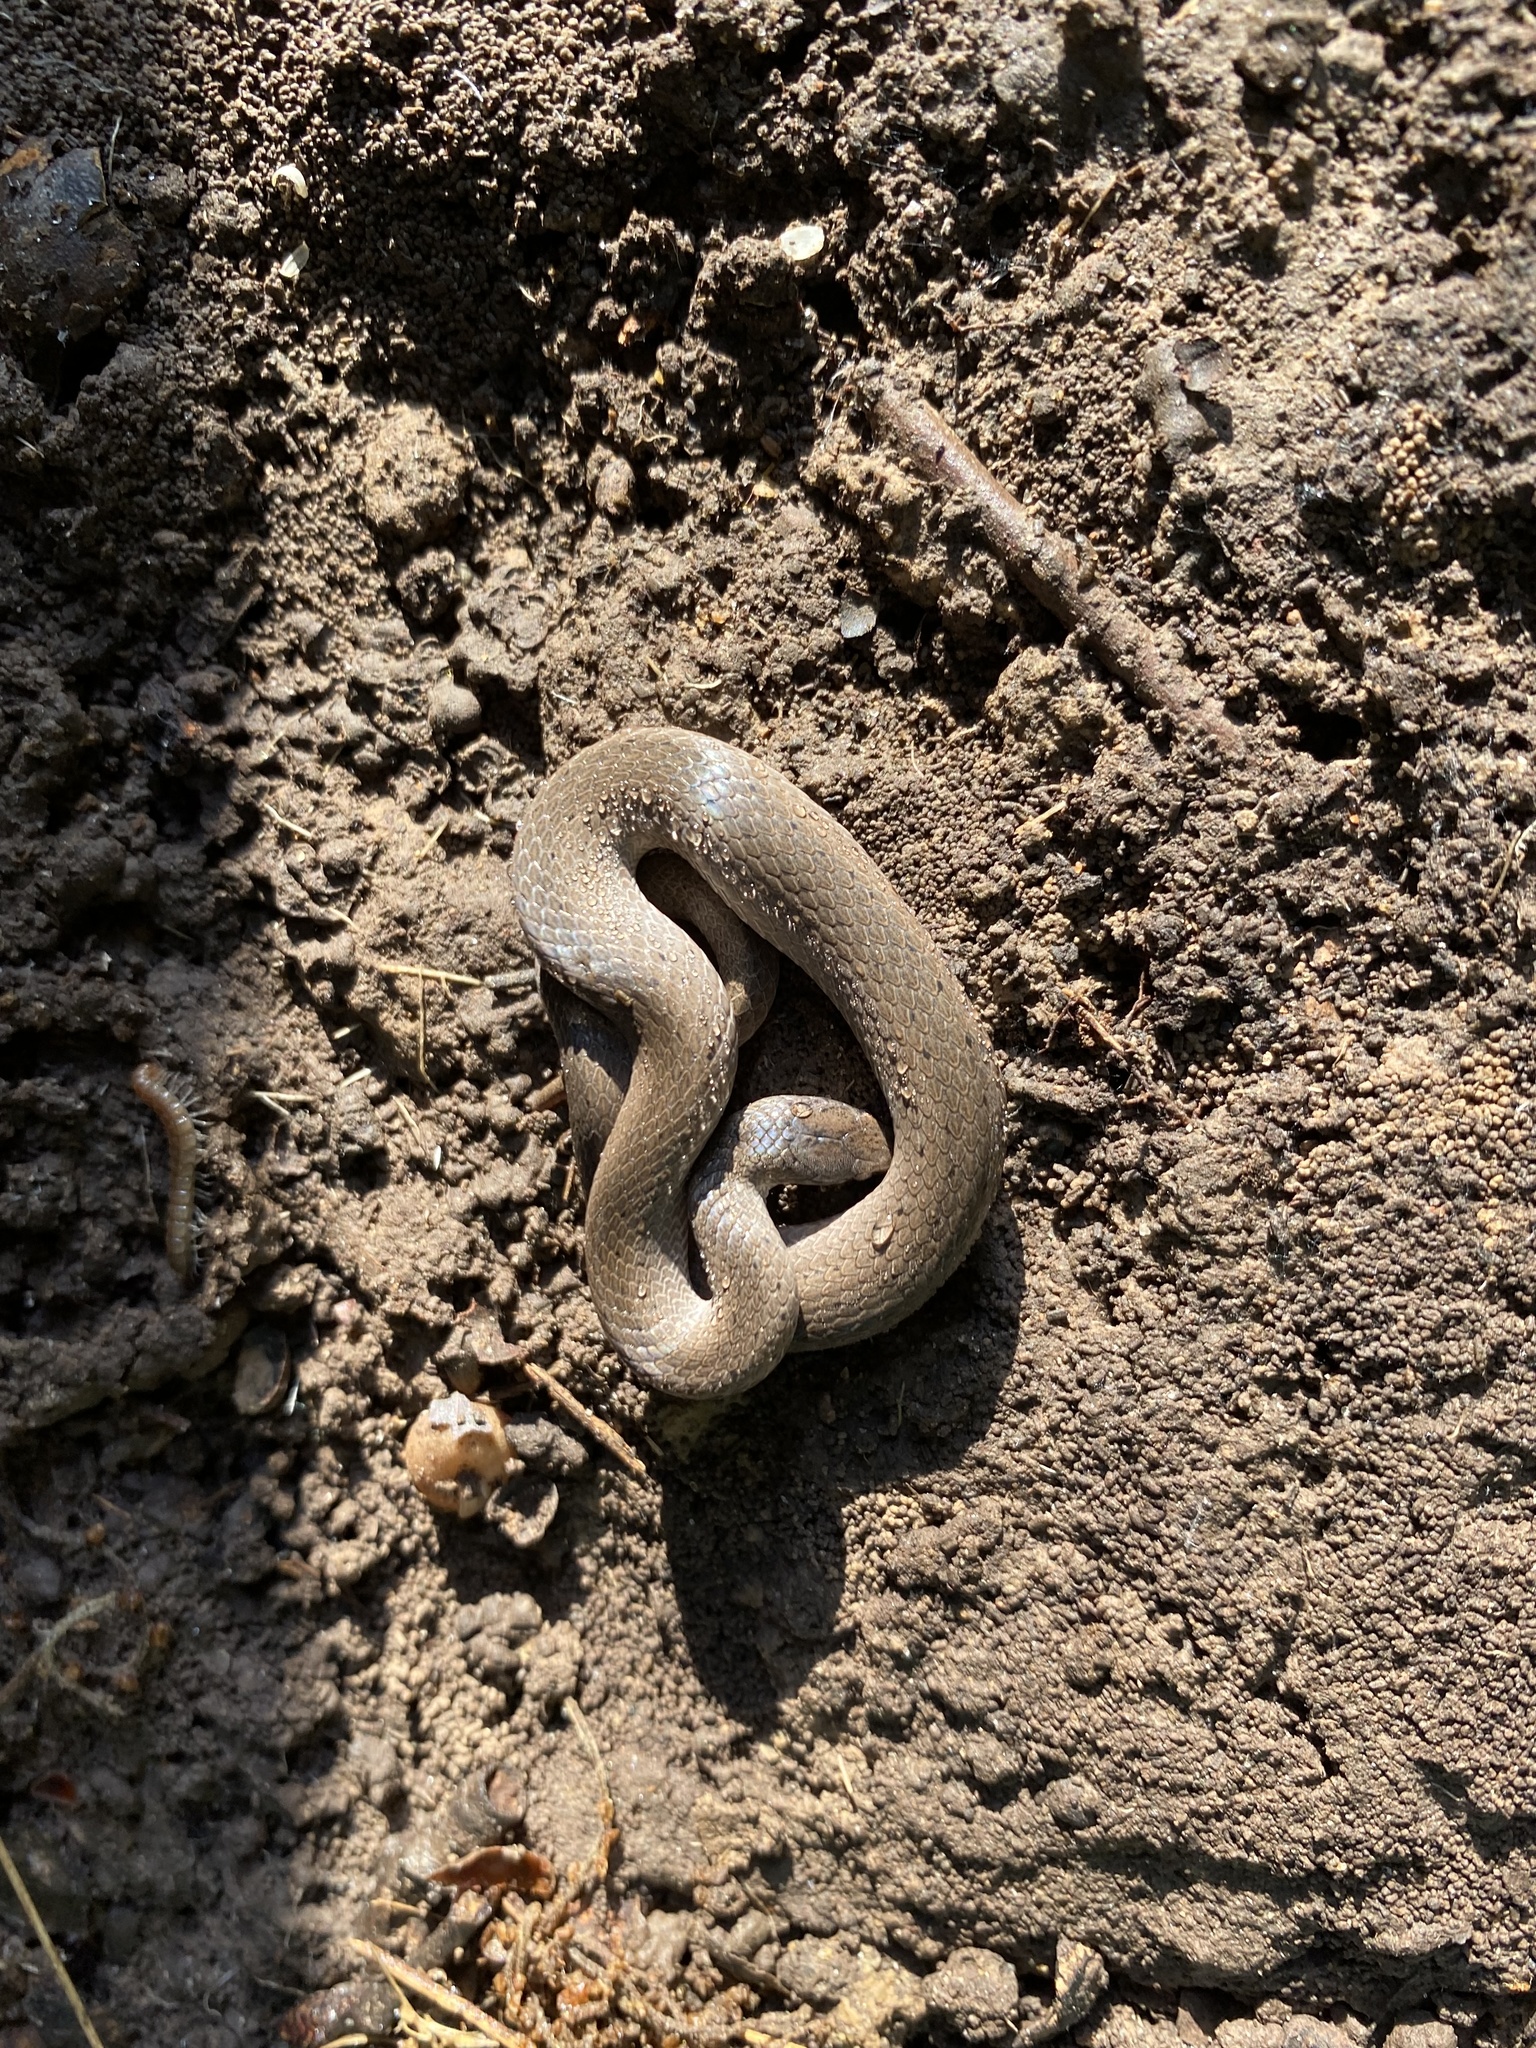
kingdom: Animalia
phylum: Chordata
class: Squamata
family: Colubridae
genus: Virginia
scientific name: Virginia valeriae
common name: Smooth earth snake
